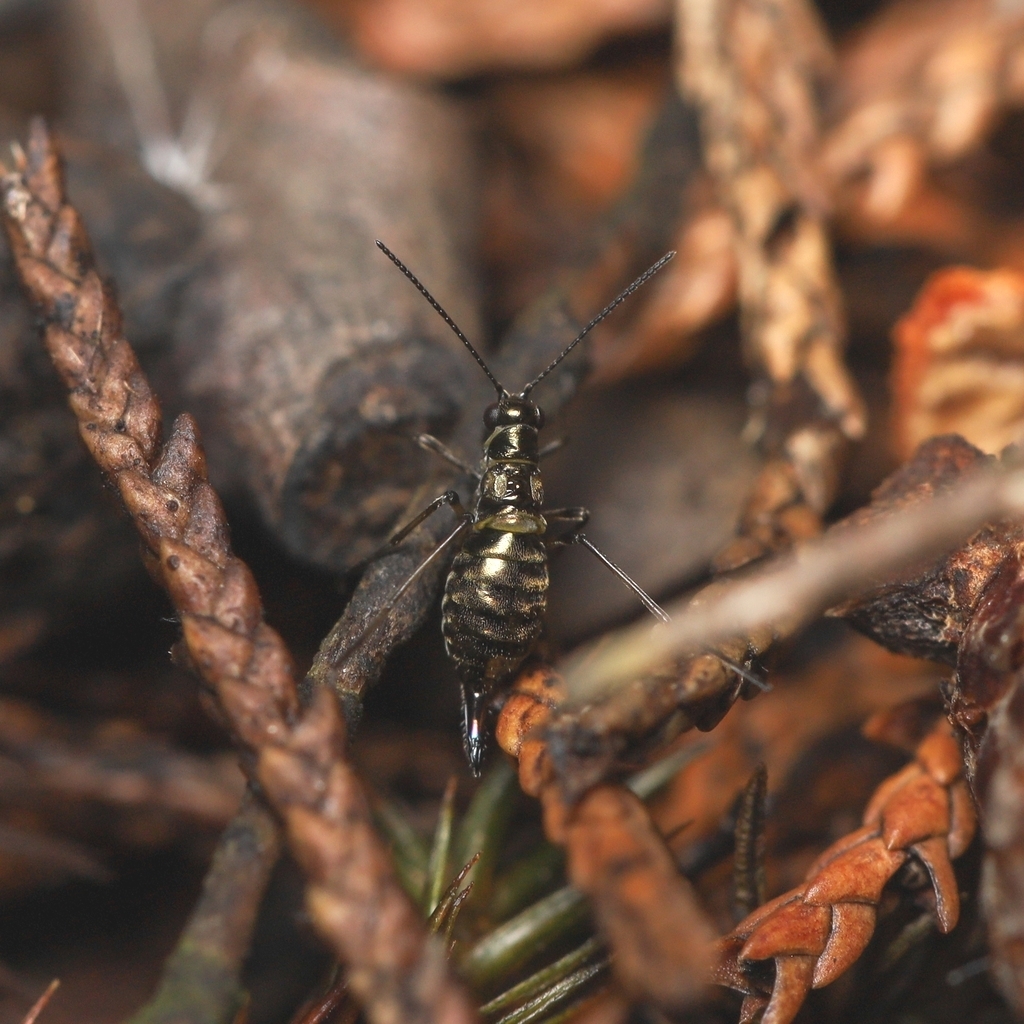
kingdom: Animalia
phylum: Arthropoda
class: Insecta
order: Mecoptera
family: Boreidae
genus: Boreus
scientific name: Boreus brumalis
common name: Mid-winter boreus
